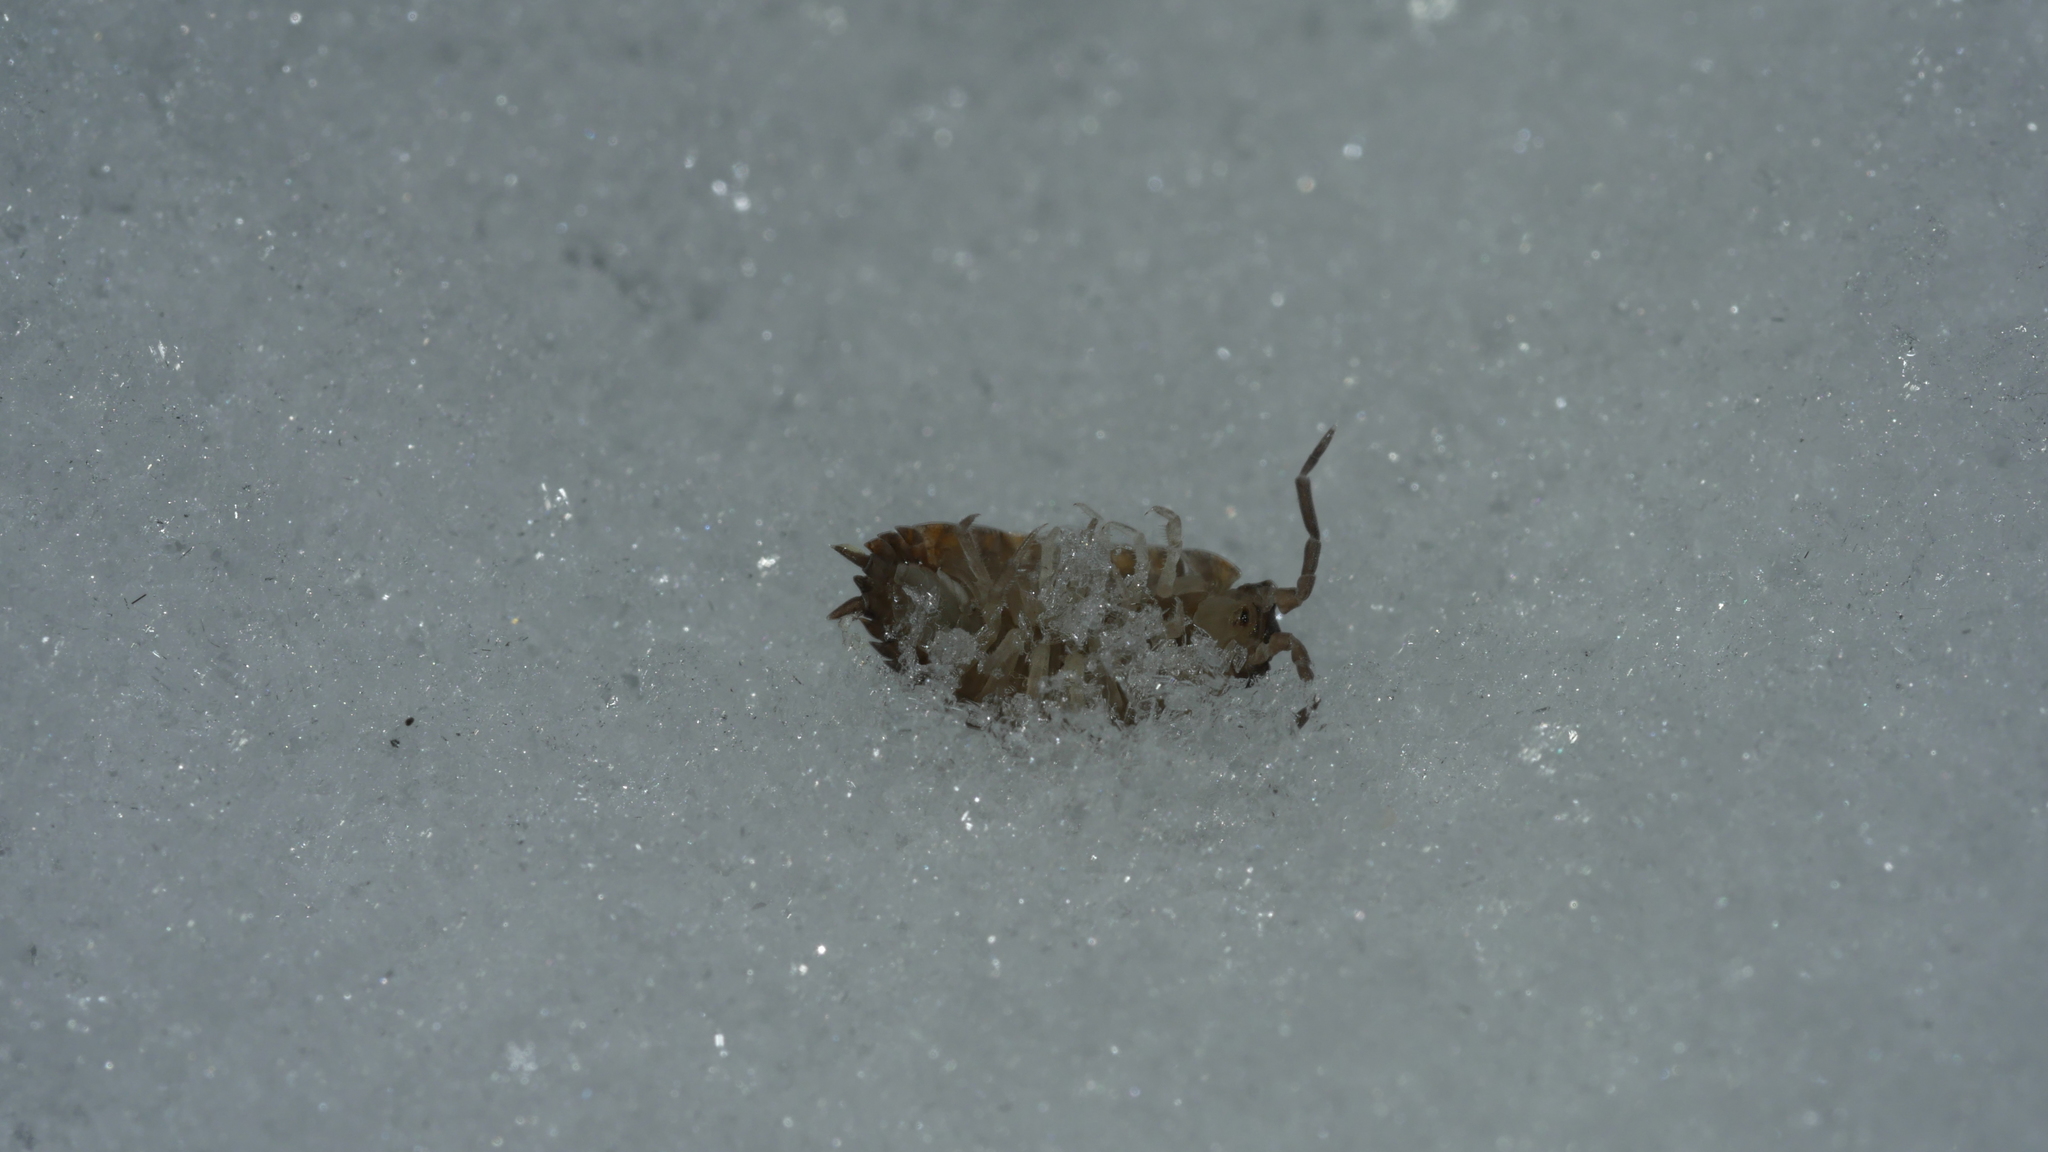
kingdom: Animalia
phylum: Arthropoda
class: Malacostraca
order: Isopoda
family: Porcellionidae
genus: Porcellio
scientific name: Porcellio scaber
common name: Common rough woodlouse
